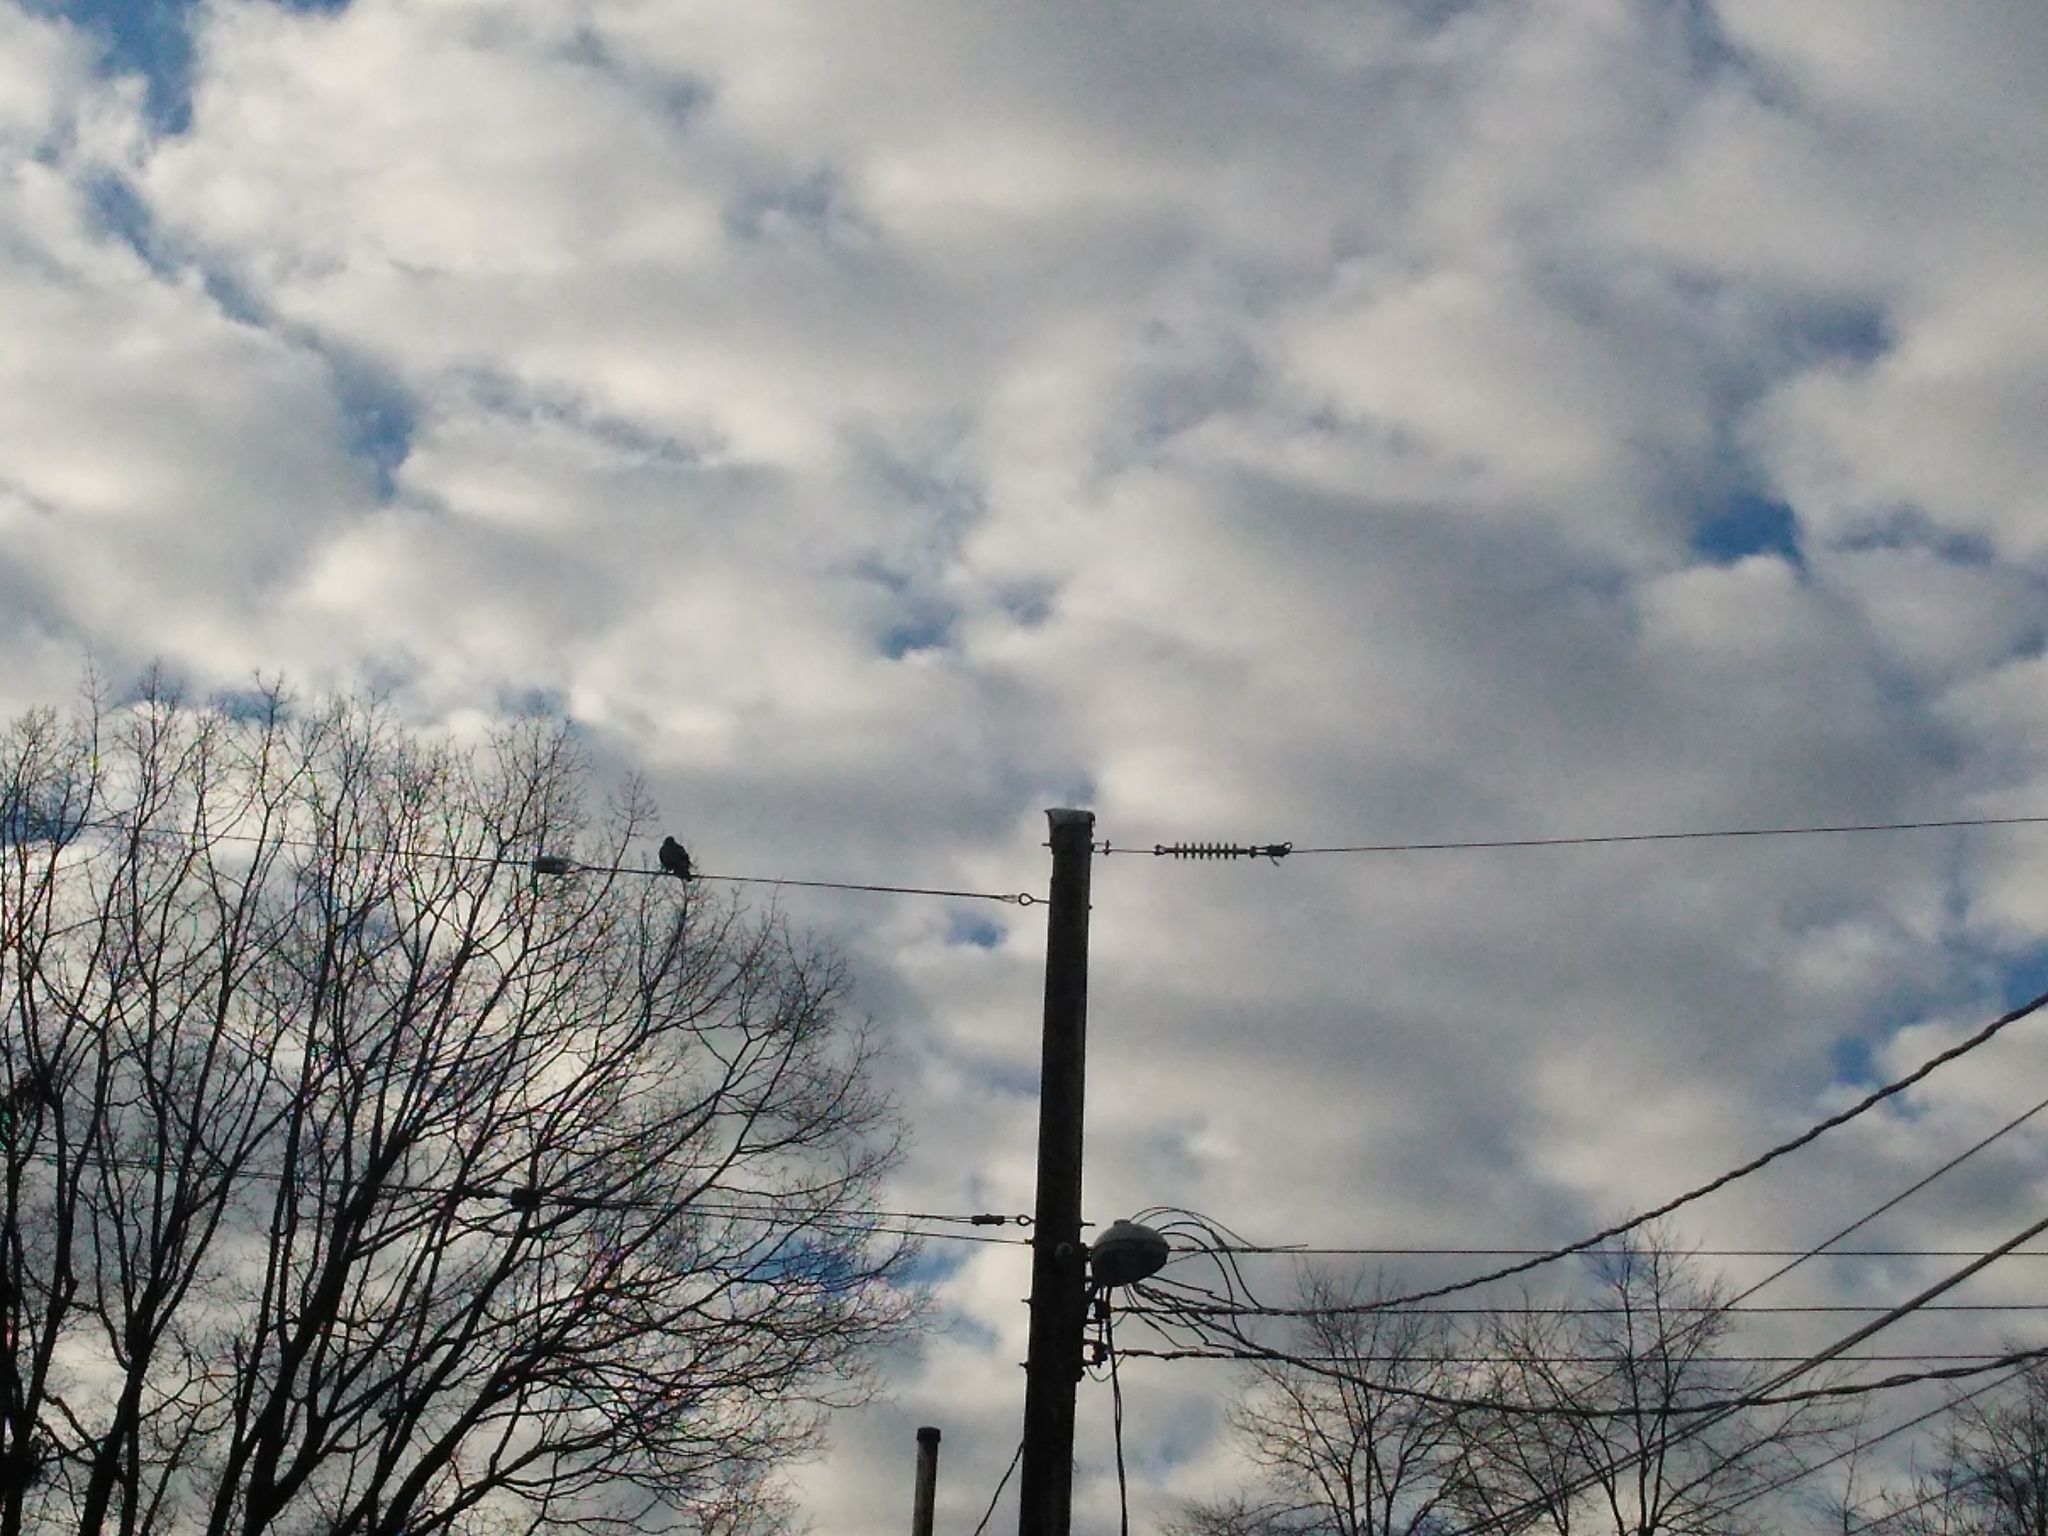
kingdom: Animalia
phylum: Chordata
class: Aves
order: Passeriformes
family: Corvidae
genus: Corvus
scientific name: Corvus brachyrhynchos
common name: American crow
